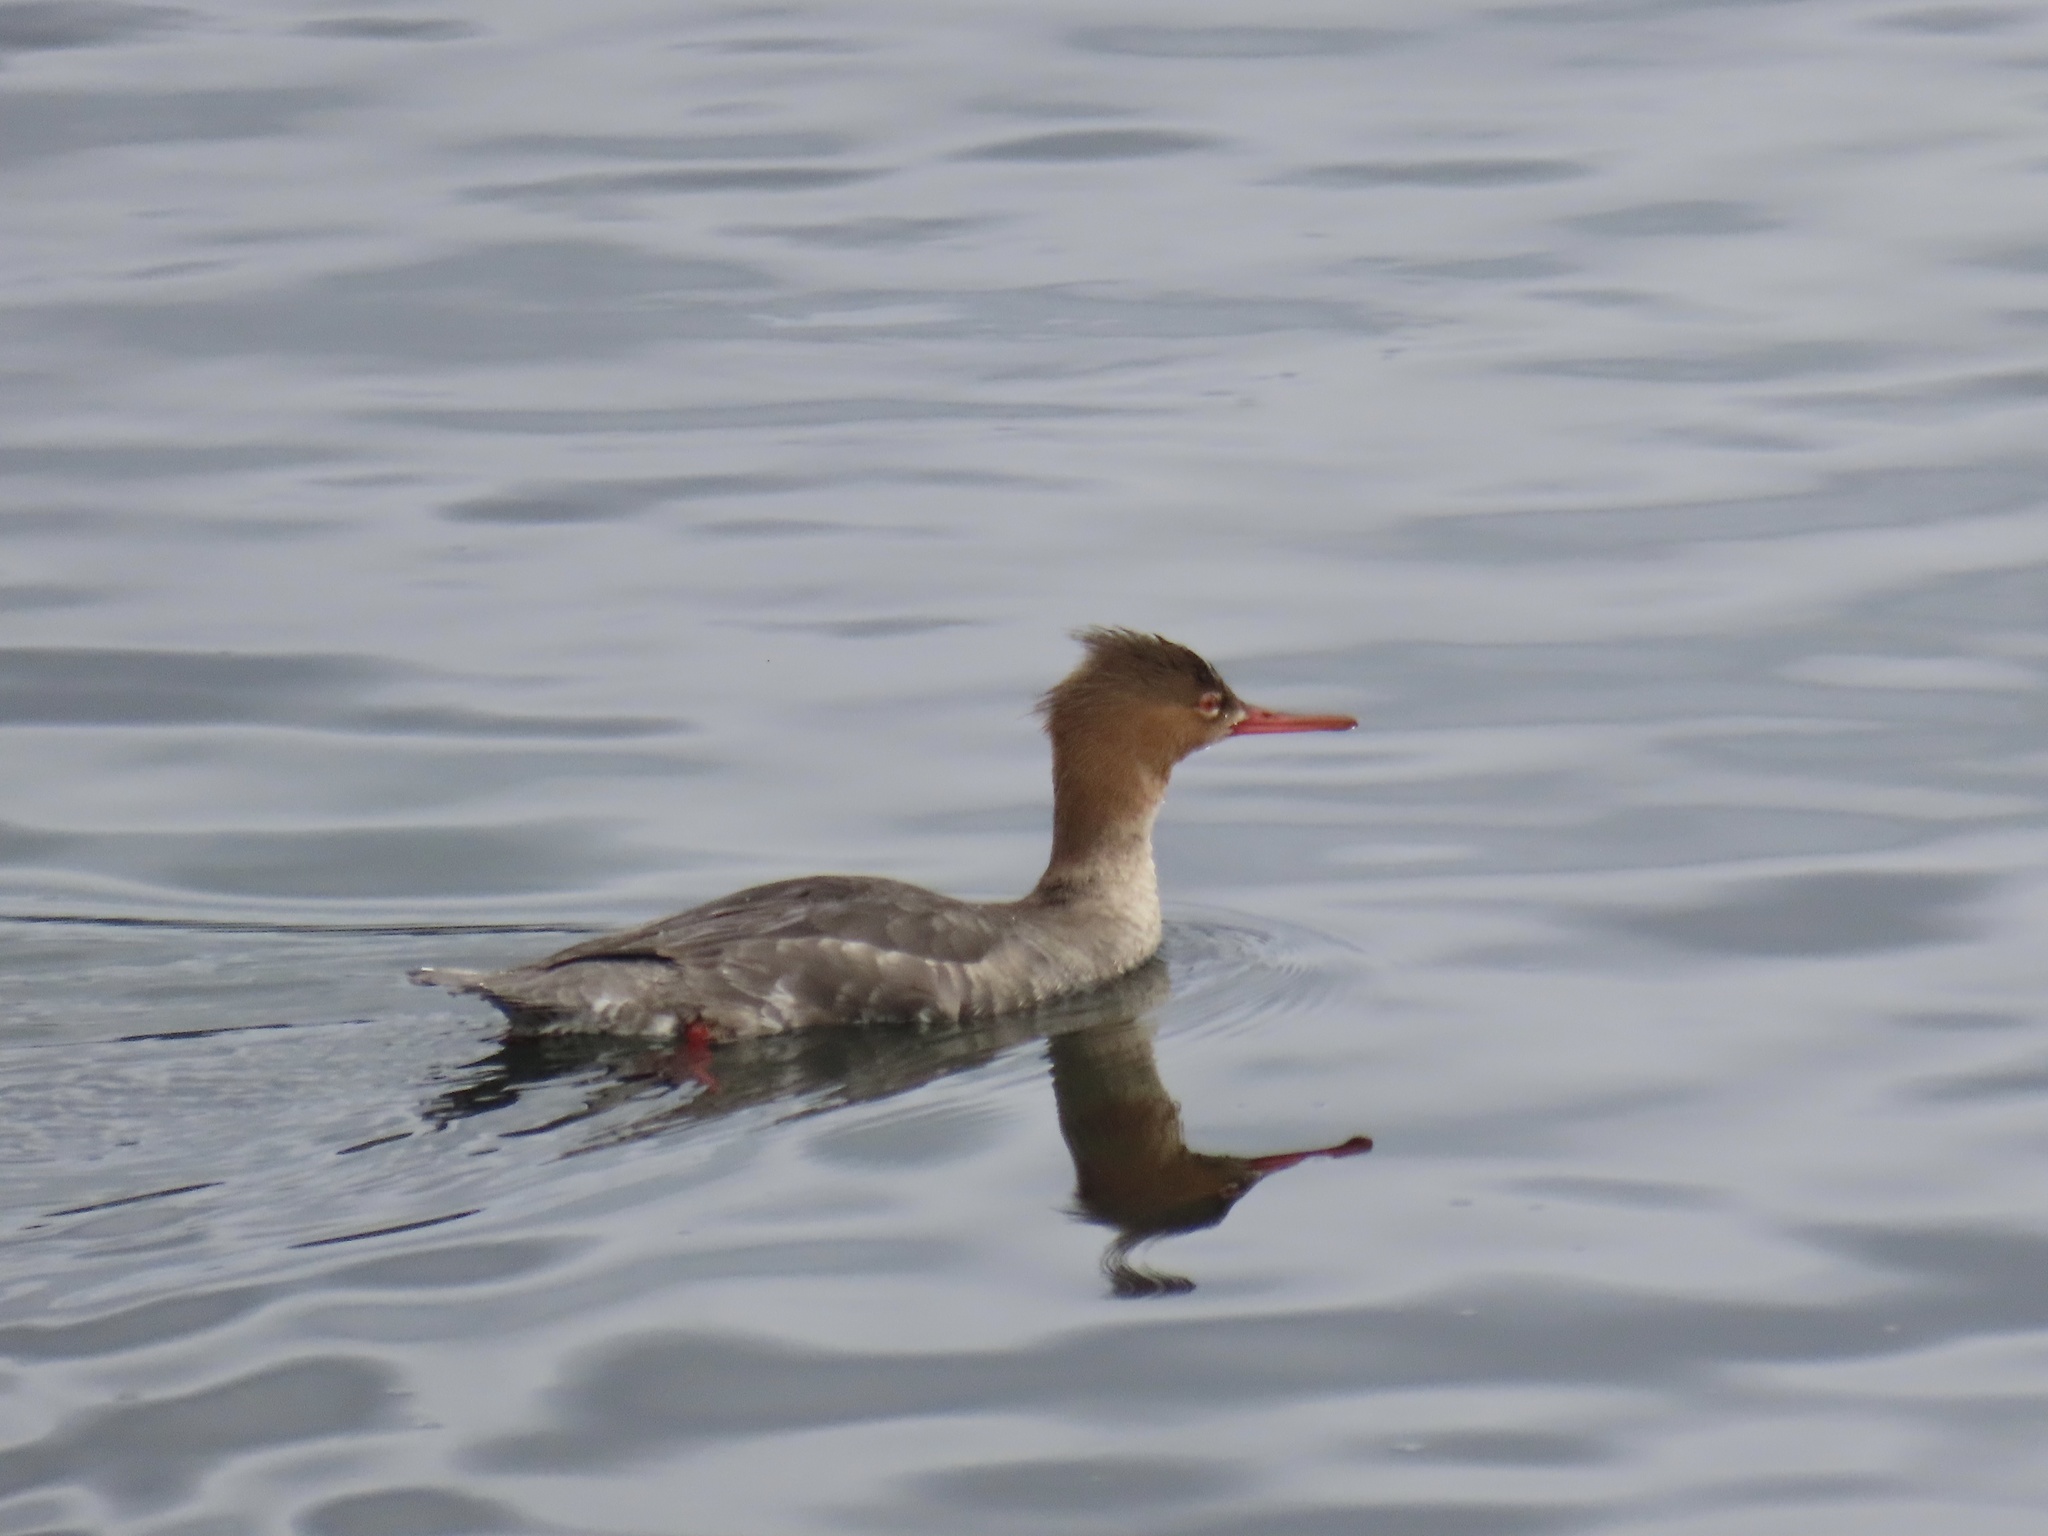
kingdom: Animalia
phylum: Chordata
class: Aves
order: Anseriformes
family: Anatidae
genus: Mergus
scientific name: Mergus serrator
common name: Red-breasted merganser
